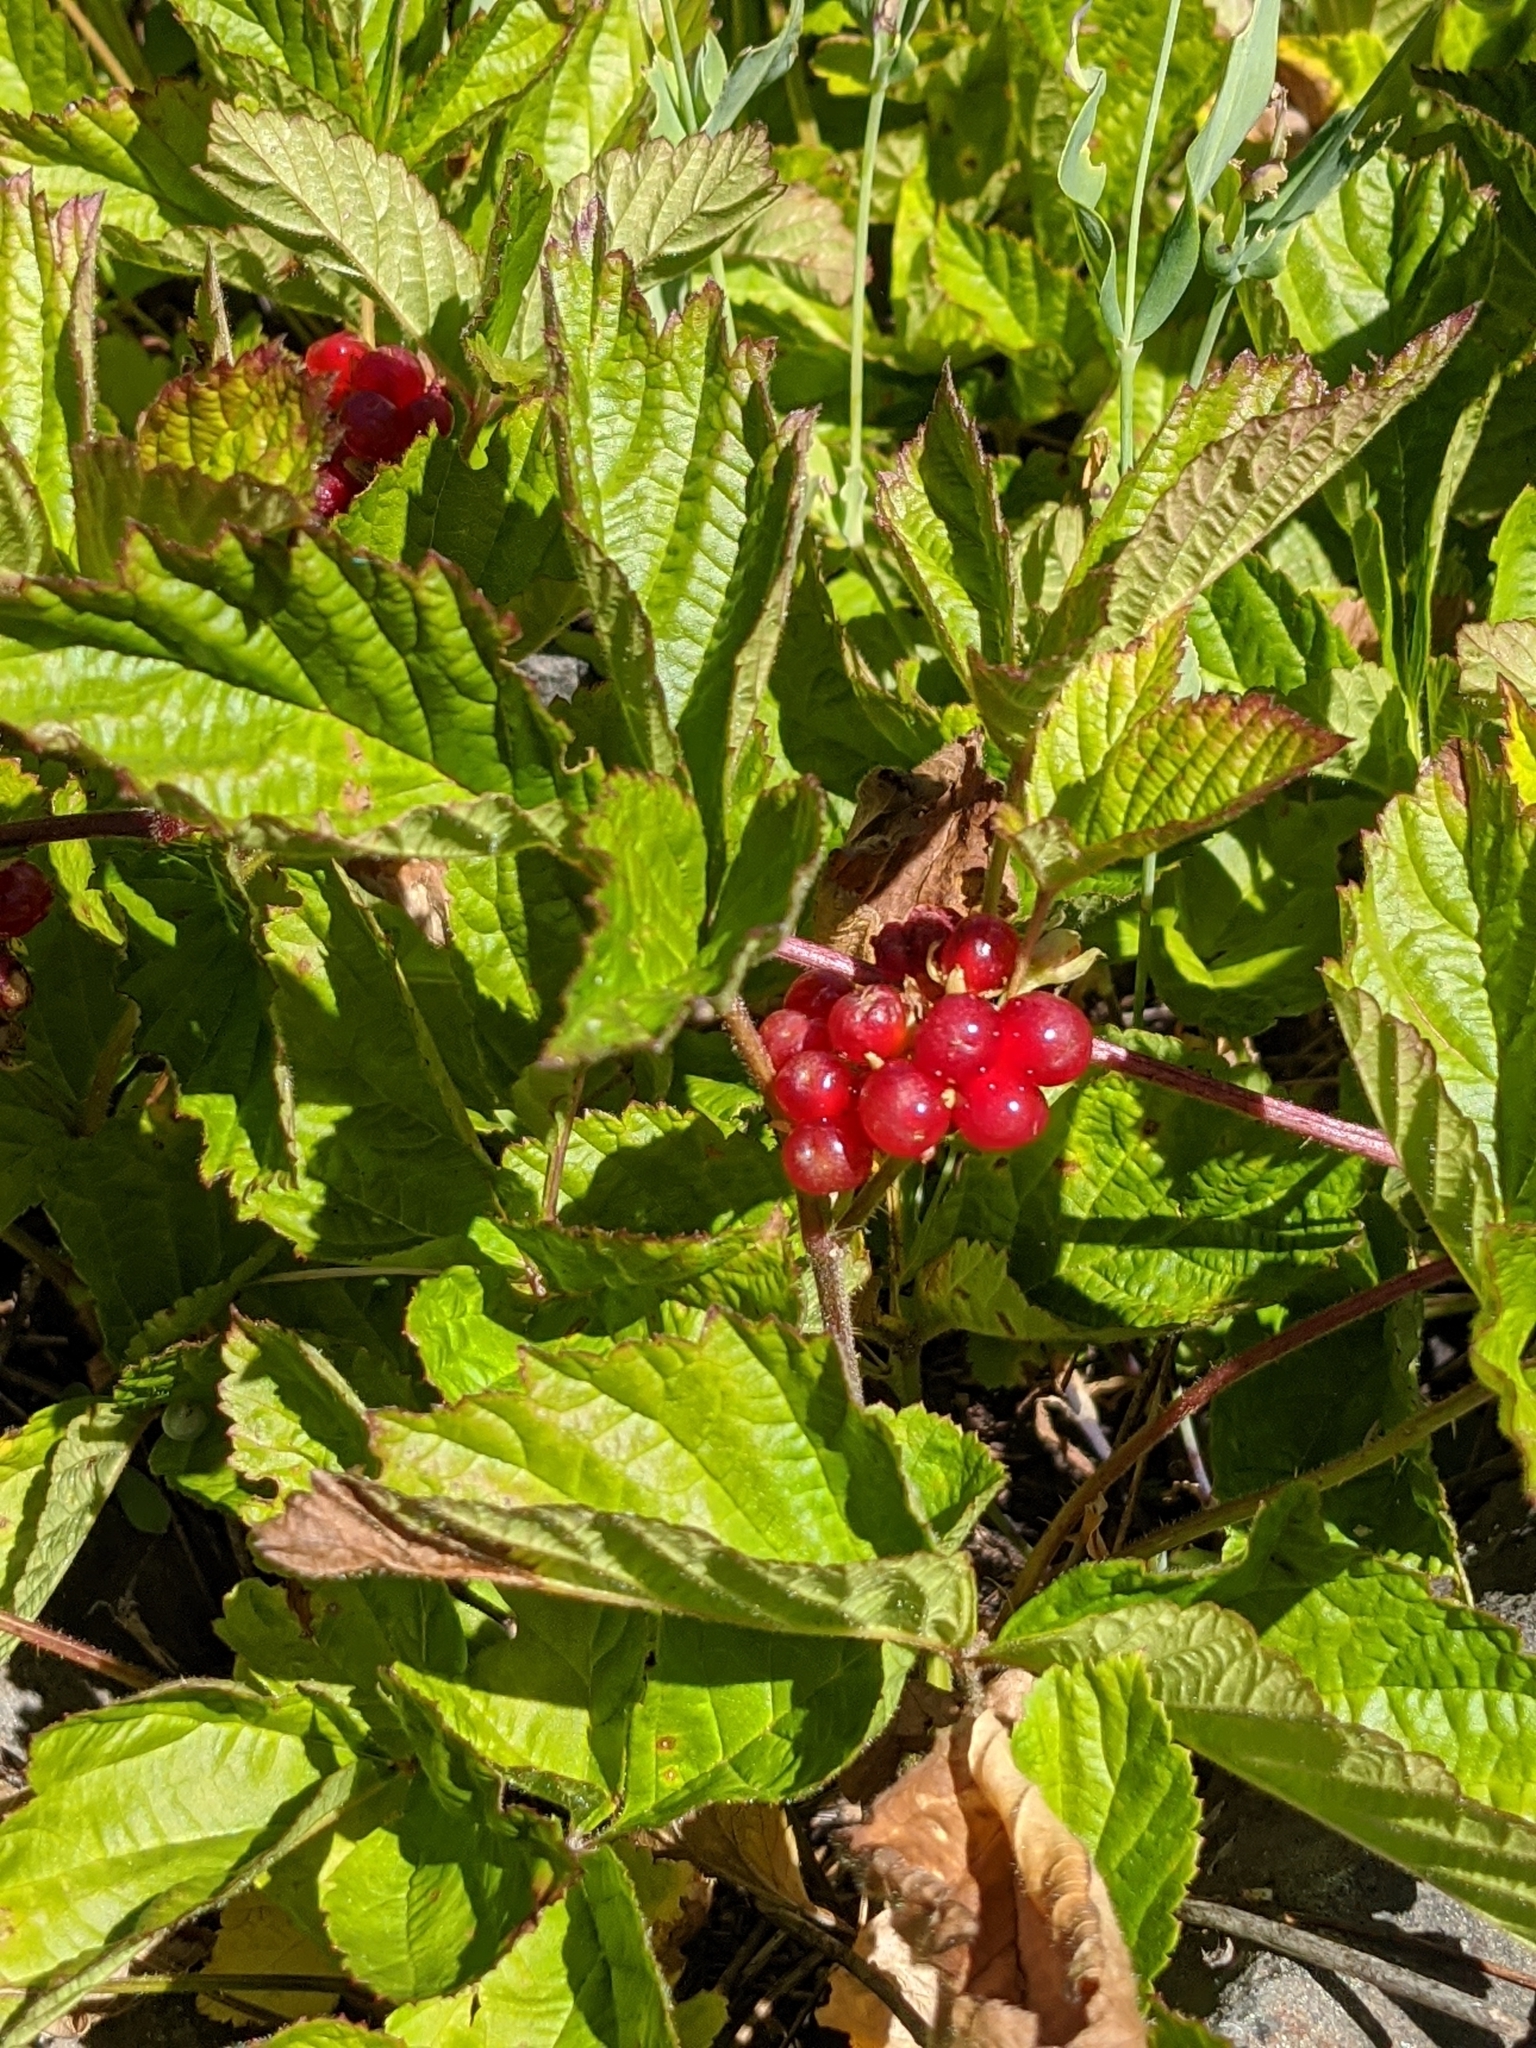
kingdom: Plantae
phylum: Tracheophyta
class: Magnoliopsida
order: Rosales
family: Rosaceae
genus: Rubus
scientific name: Rubus saxatilis
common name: Stone bramble
